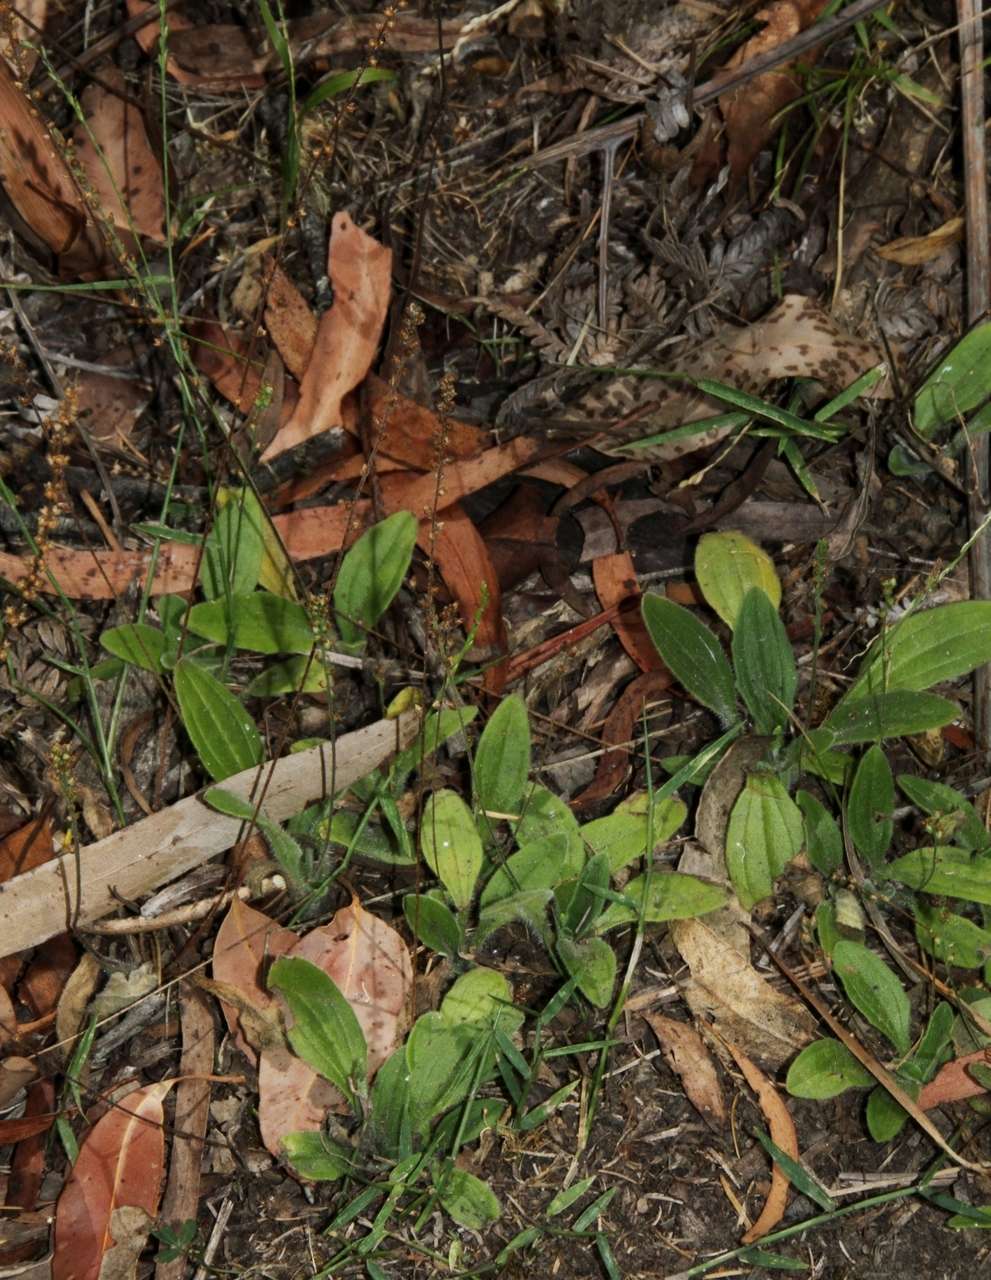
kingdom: Plantae
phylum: Tracheophyta
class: Magnoliopsida
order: Lamiales
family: Plantaginaceae
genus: Plantago
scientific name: Plantago debilis
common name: Weak plantain
